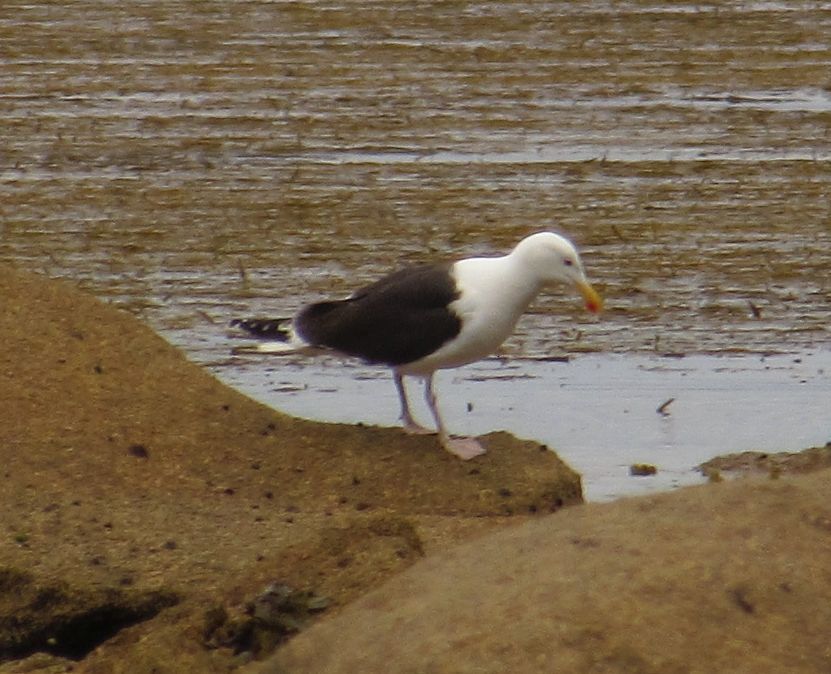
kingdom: Animalia
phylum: Chordata
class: Aves
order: Charadriiformes
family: Laridae
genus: Larus
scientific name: Larus marinus
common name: Great black-backed gull
